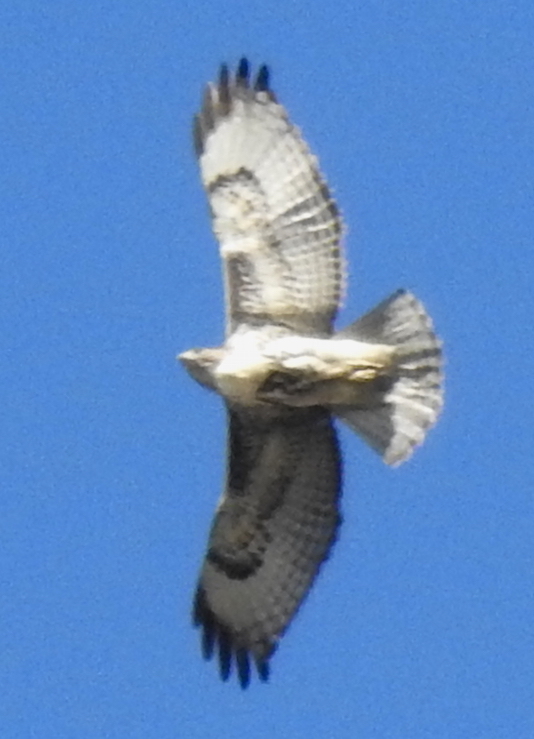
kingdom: Animalia
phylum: Chordata
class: Aves
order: Accipitriformes
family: Accipitridae
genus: Buteo
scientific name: Buteo jamaicensis
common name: Red-tailed hawk
